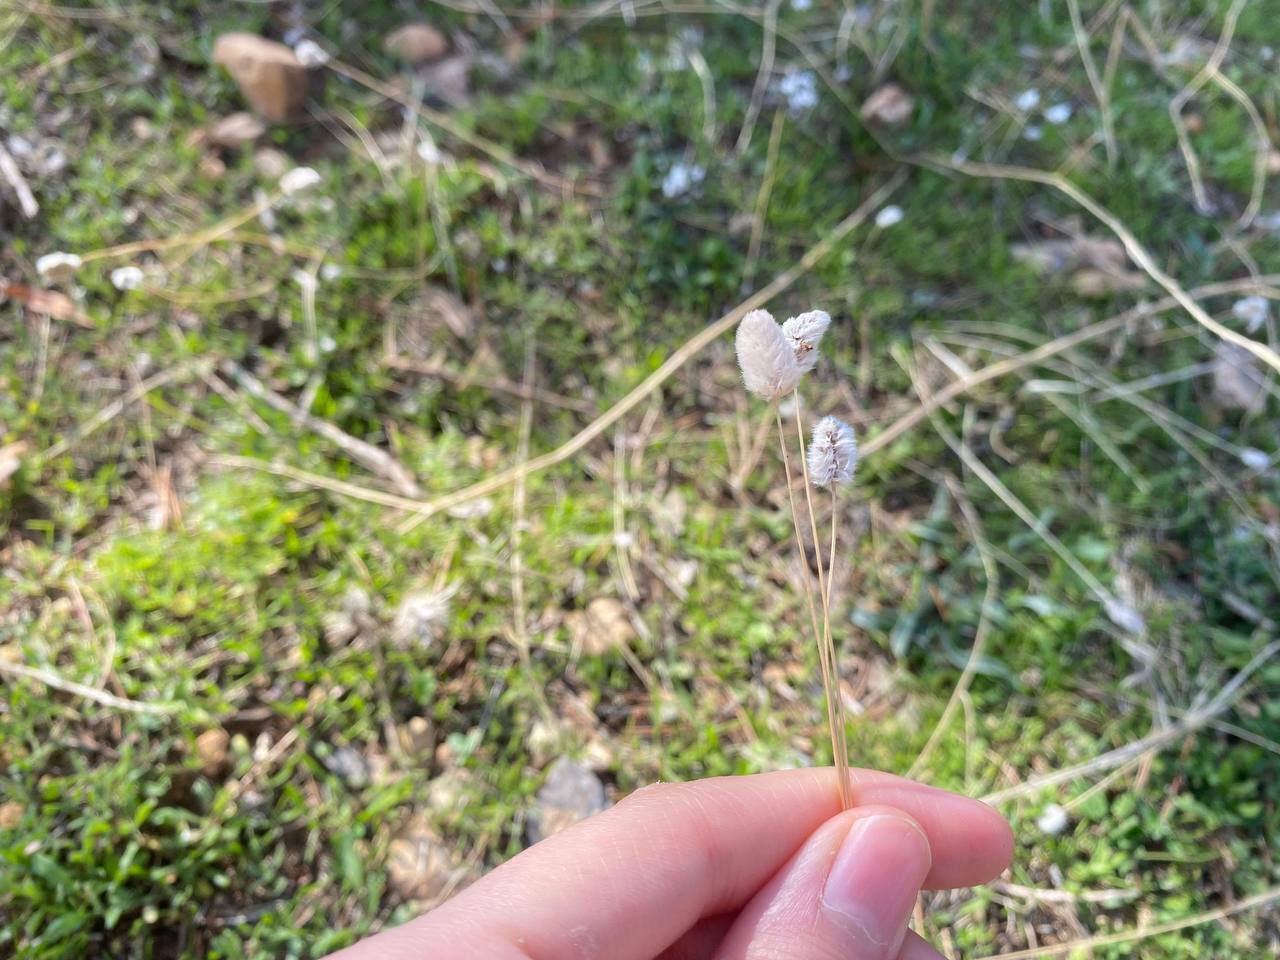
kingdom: Plantae
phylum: Tracheophyta
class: Magnoliopsida
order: Lamiales
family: Plantaginaceae
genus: Plantago
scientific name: Plantago lagopus
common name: Hare-foot plantain
